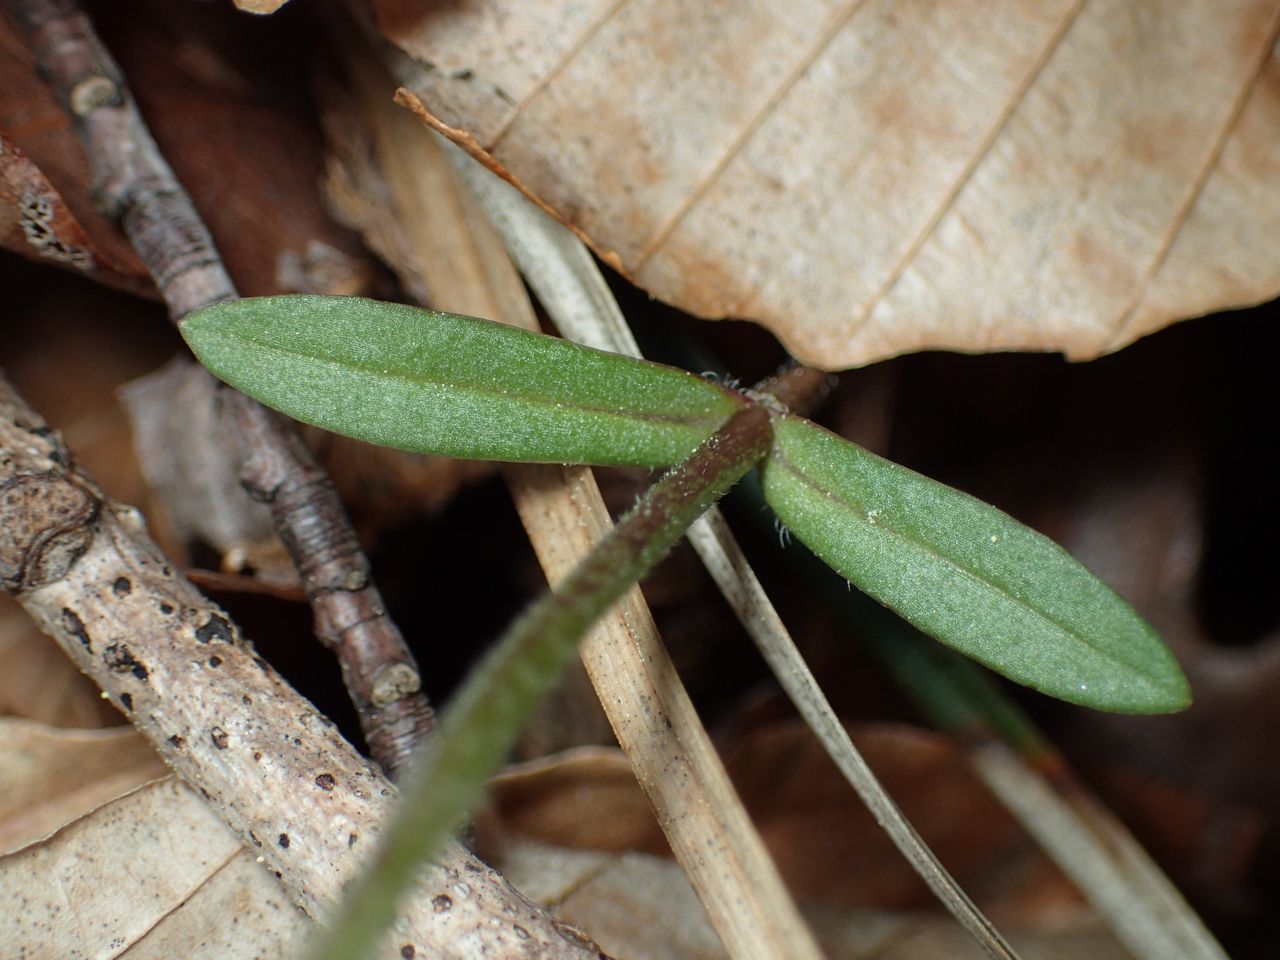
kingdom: Plantae
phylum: Tracheophyta
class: Magnoliopsida
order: Ericales
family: Polemoniaceae
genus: Phlox
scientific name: Phlox divaricata
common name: Blue phlox
